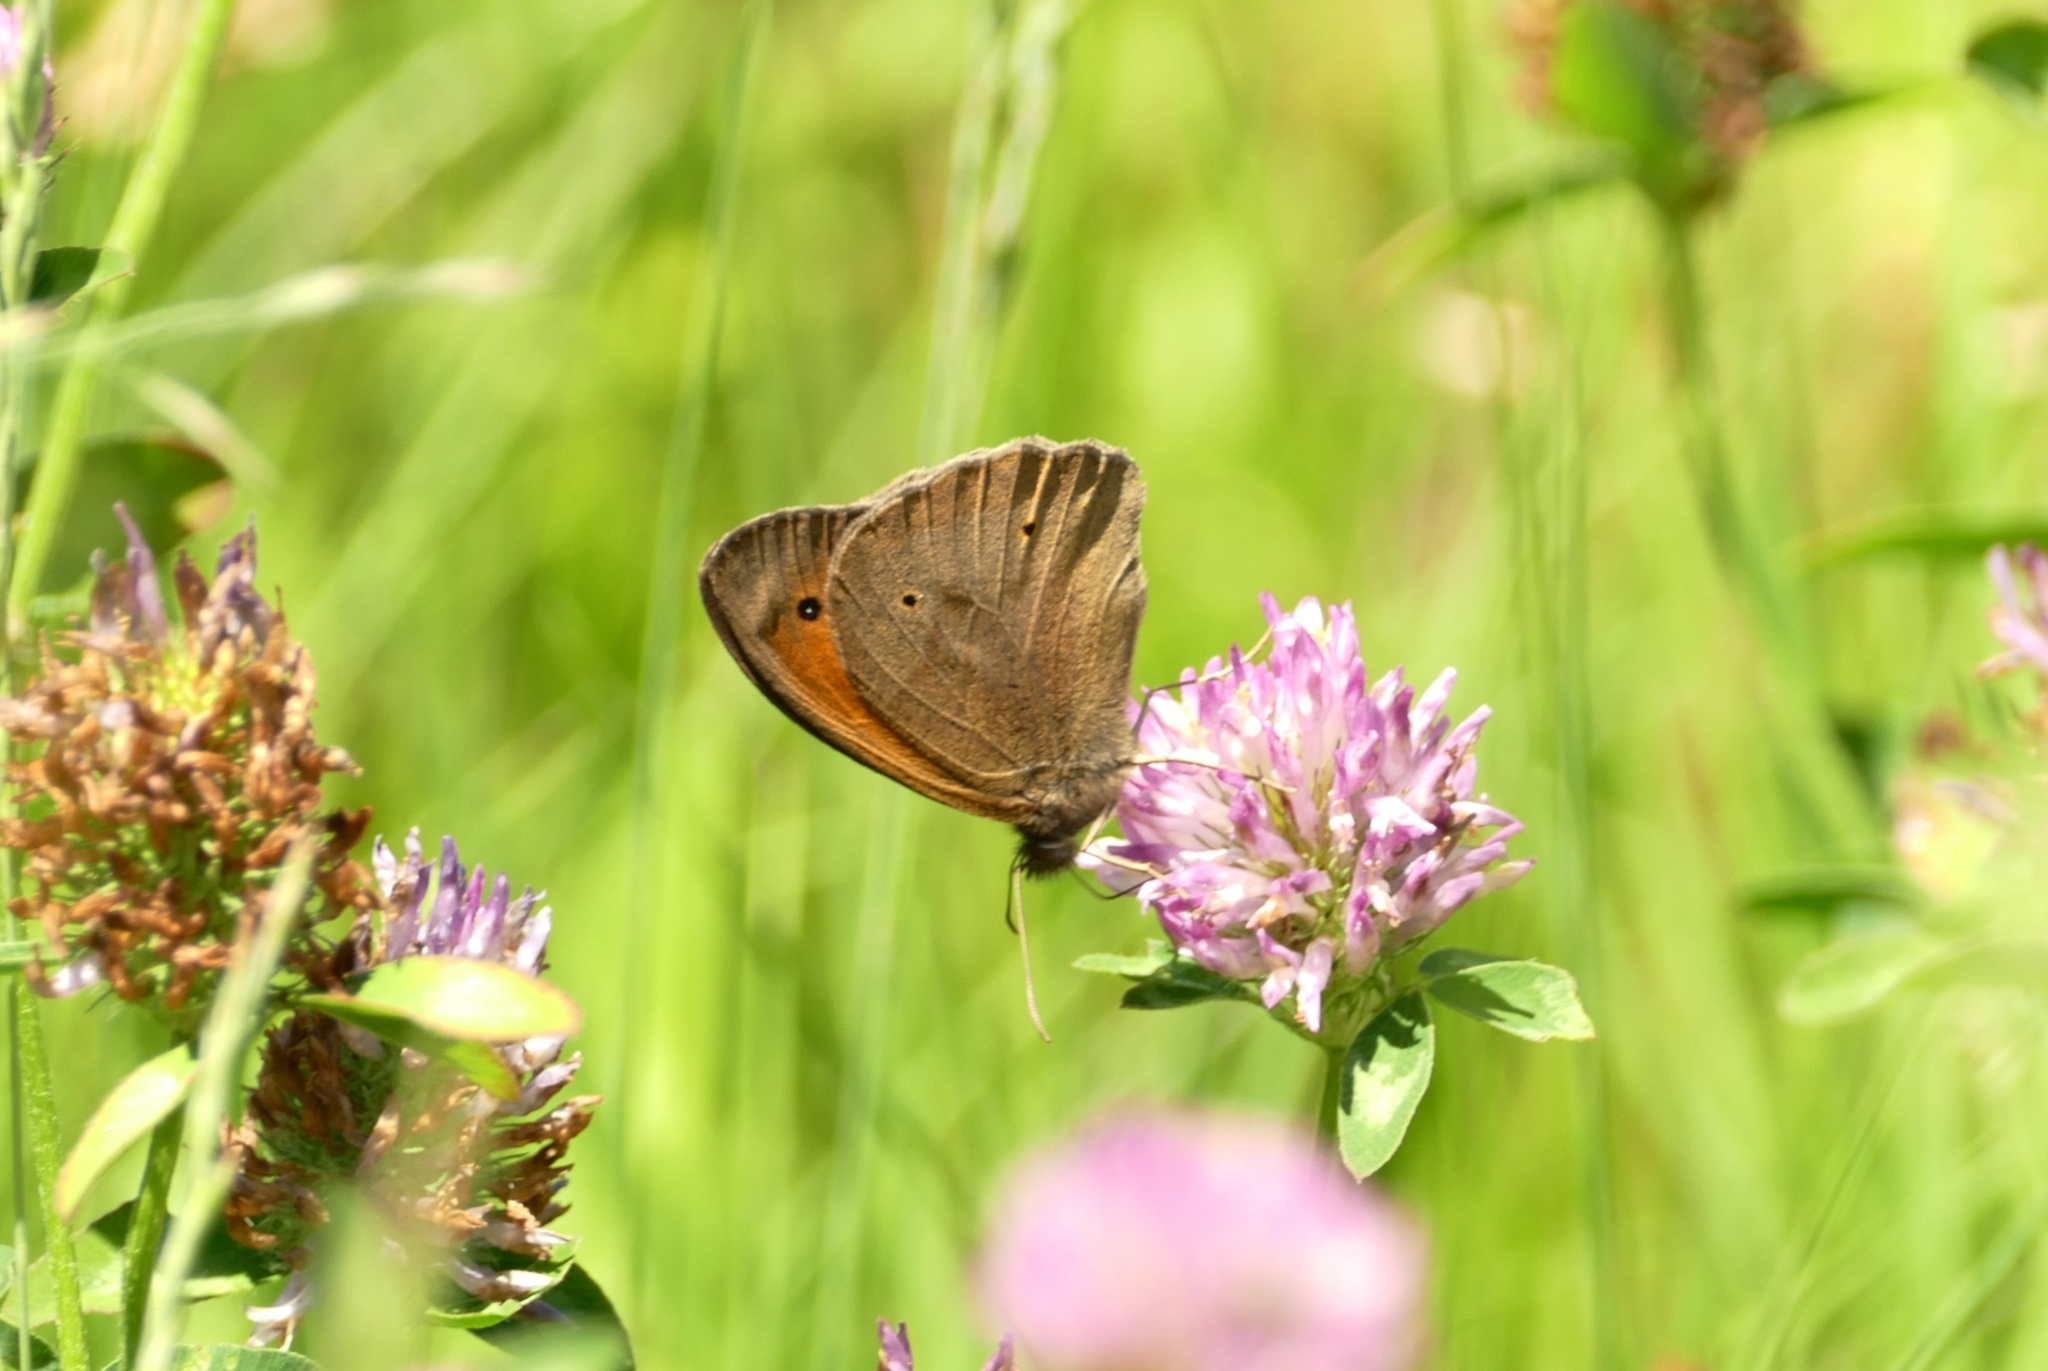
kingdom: Animalia
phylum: Arthropoda
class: Insecta
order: Lepidoptera
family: Nymphalidae
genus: Maniola
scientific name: Maniola jurtina
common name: Meadow brown
